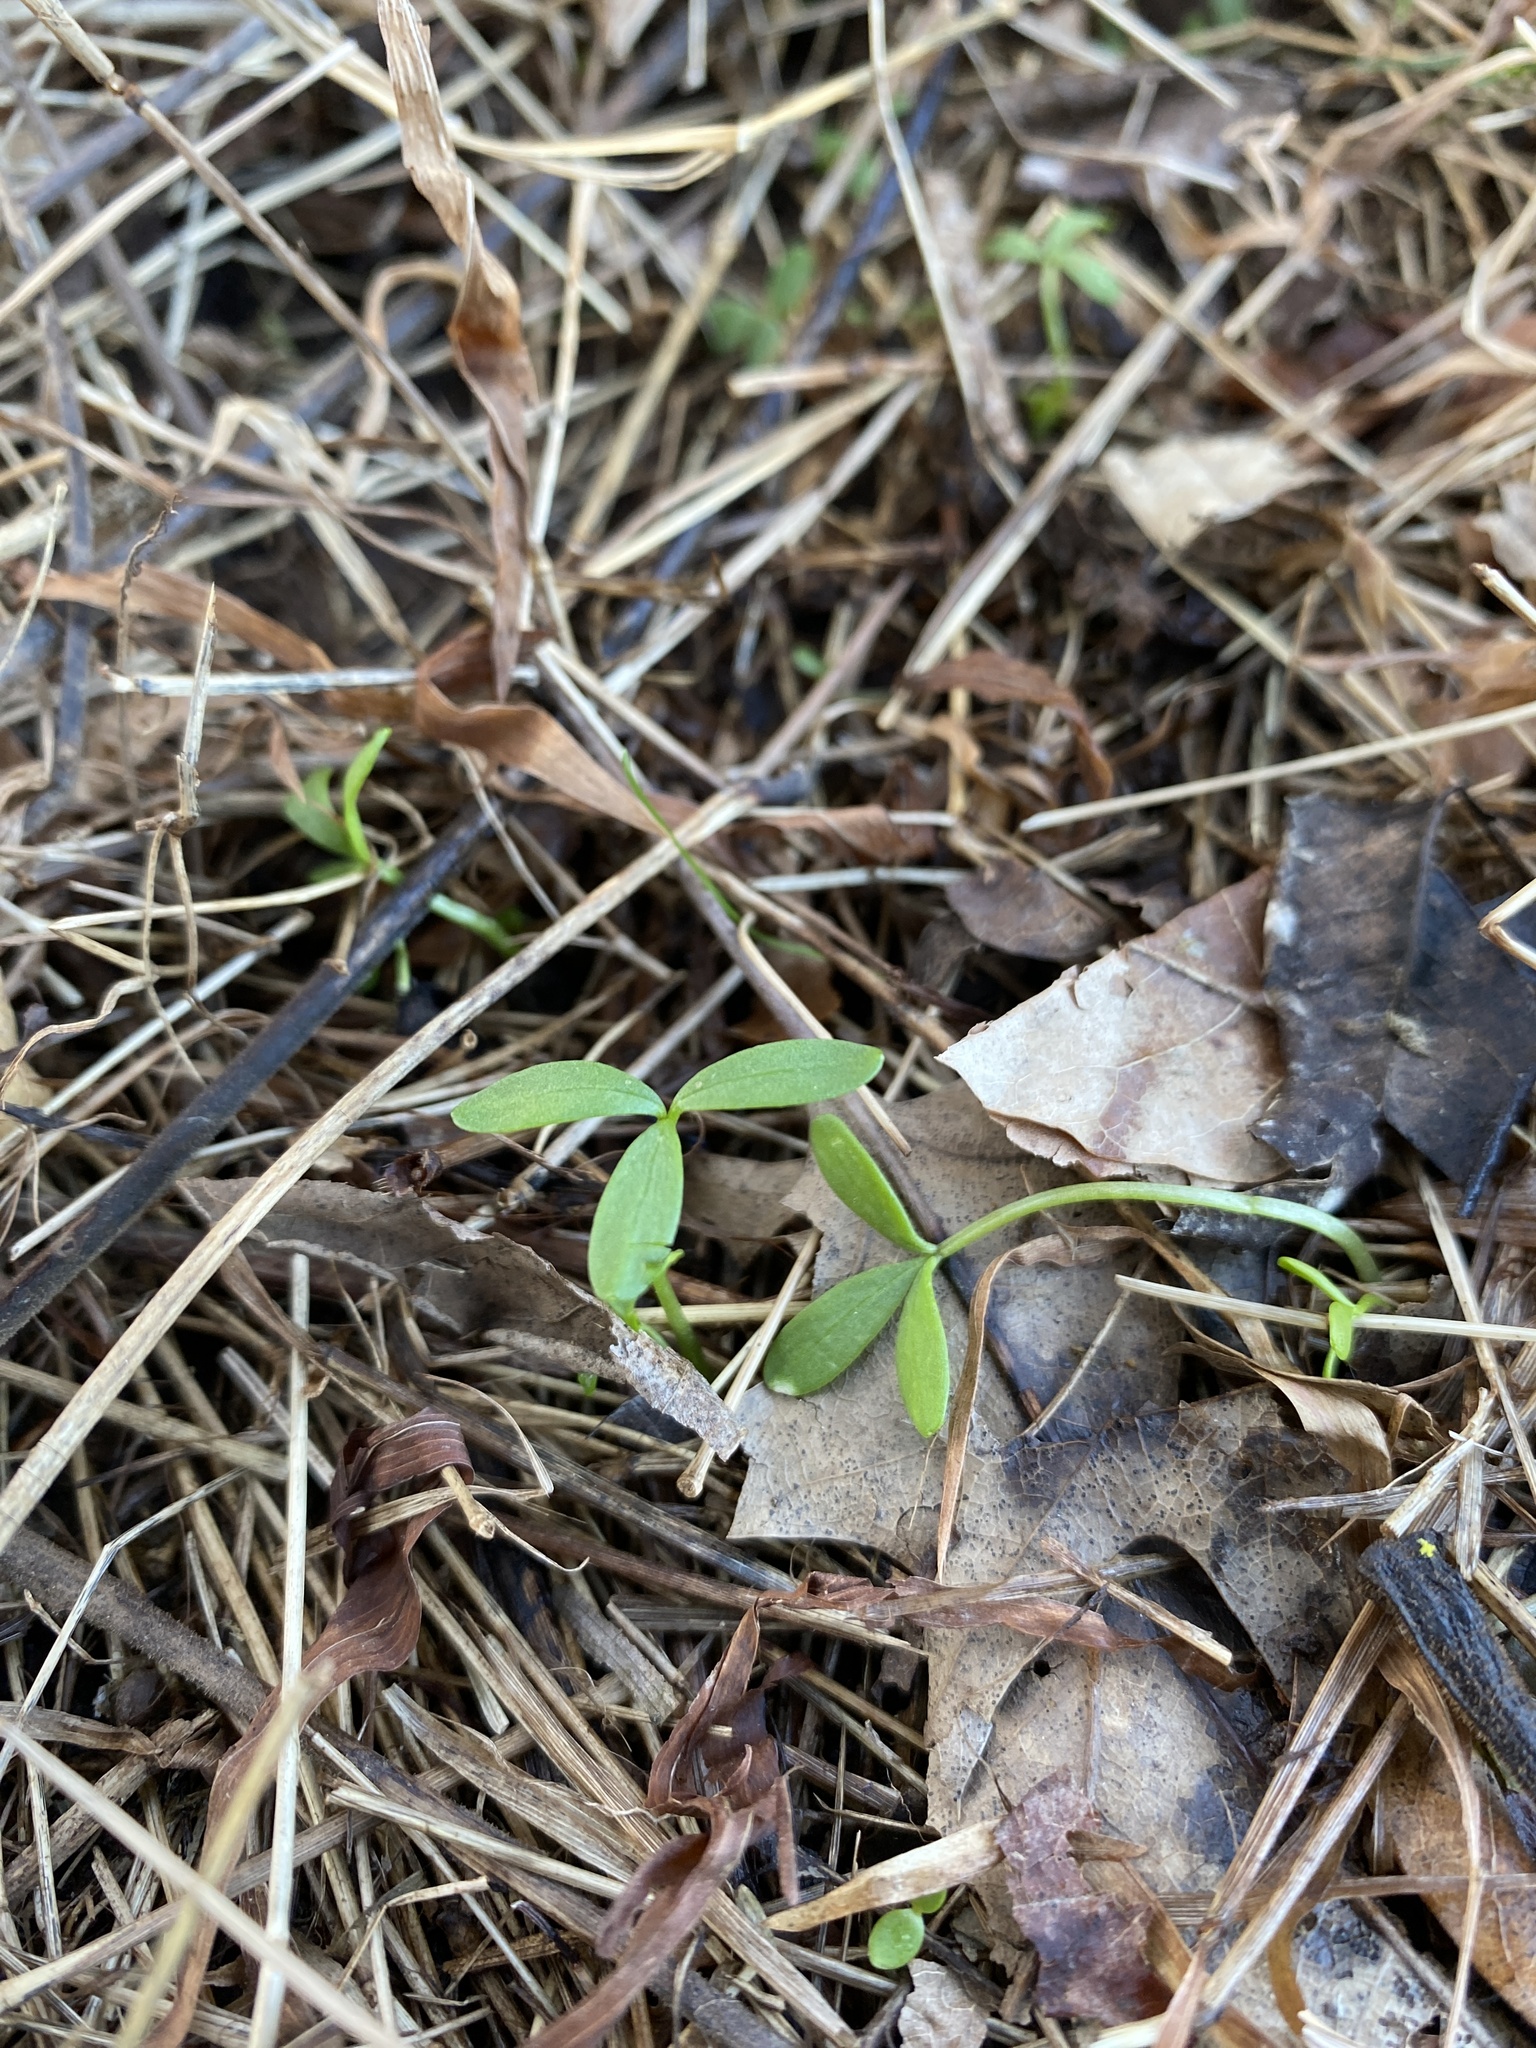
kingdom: Plantae
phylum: Tracheophyta
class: Magnoliopsida
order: Brassicales
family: Limnanthaceae
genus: Floerkea
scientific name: Floerkea proserpinacoides
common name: False mermaid
